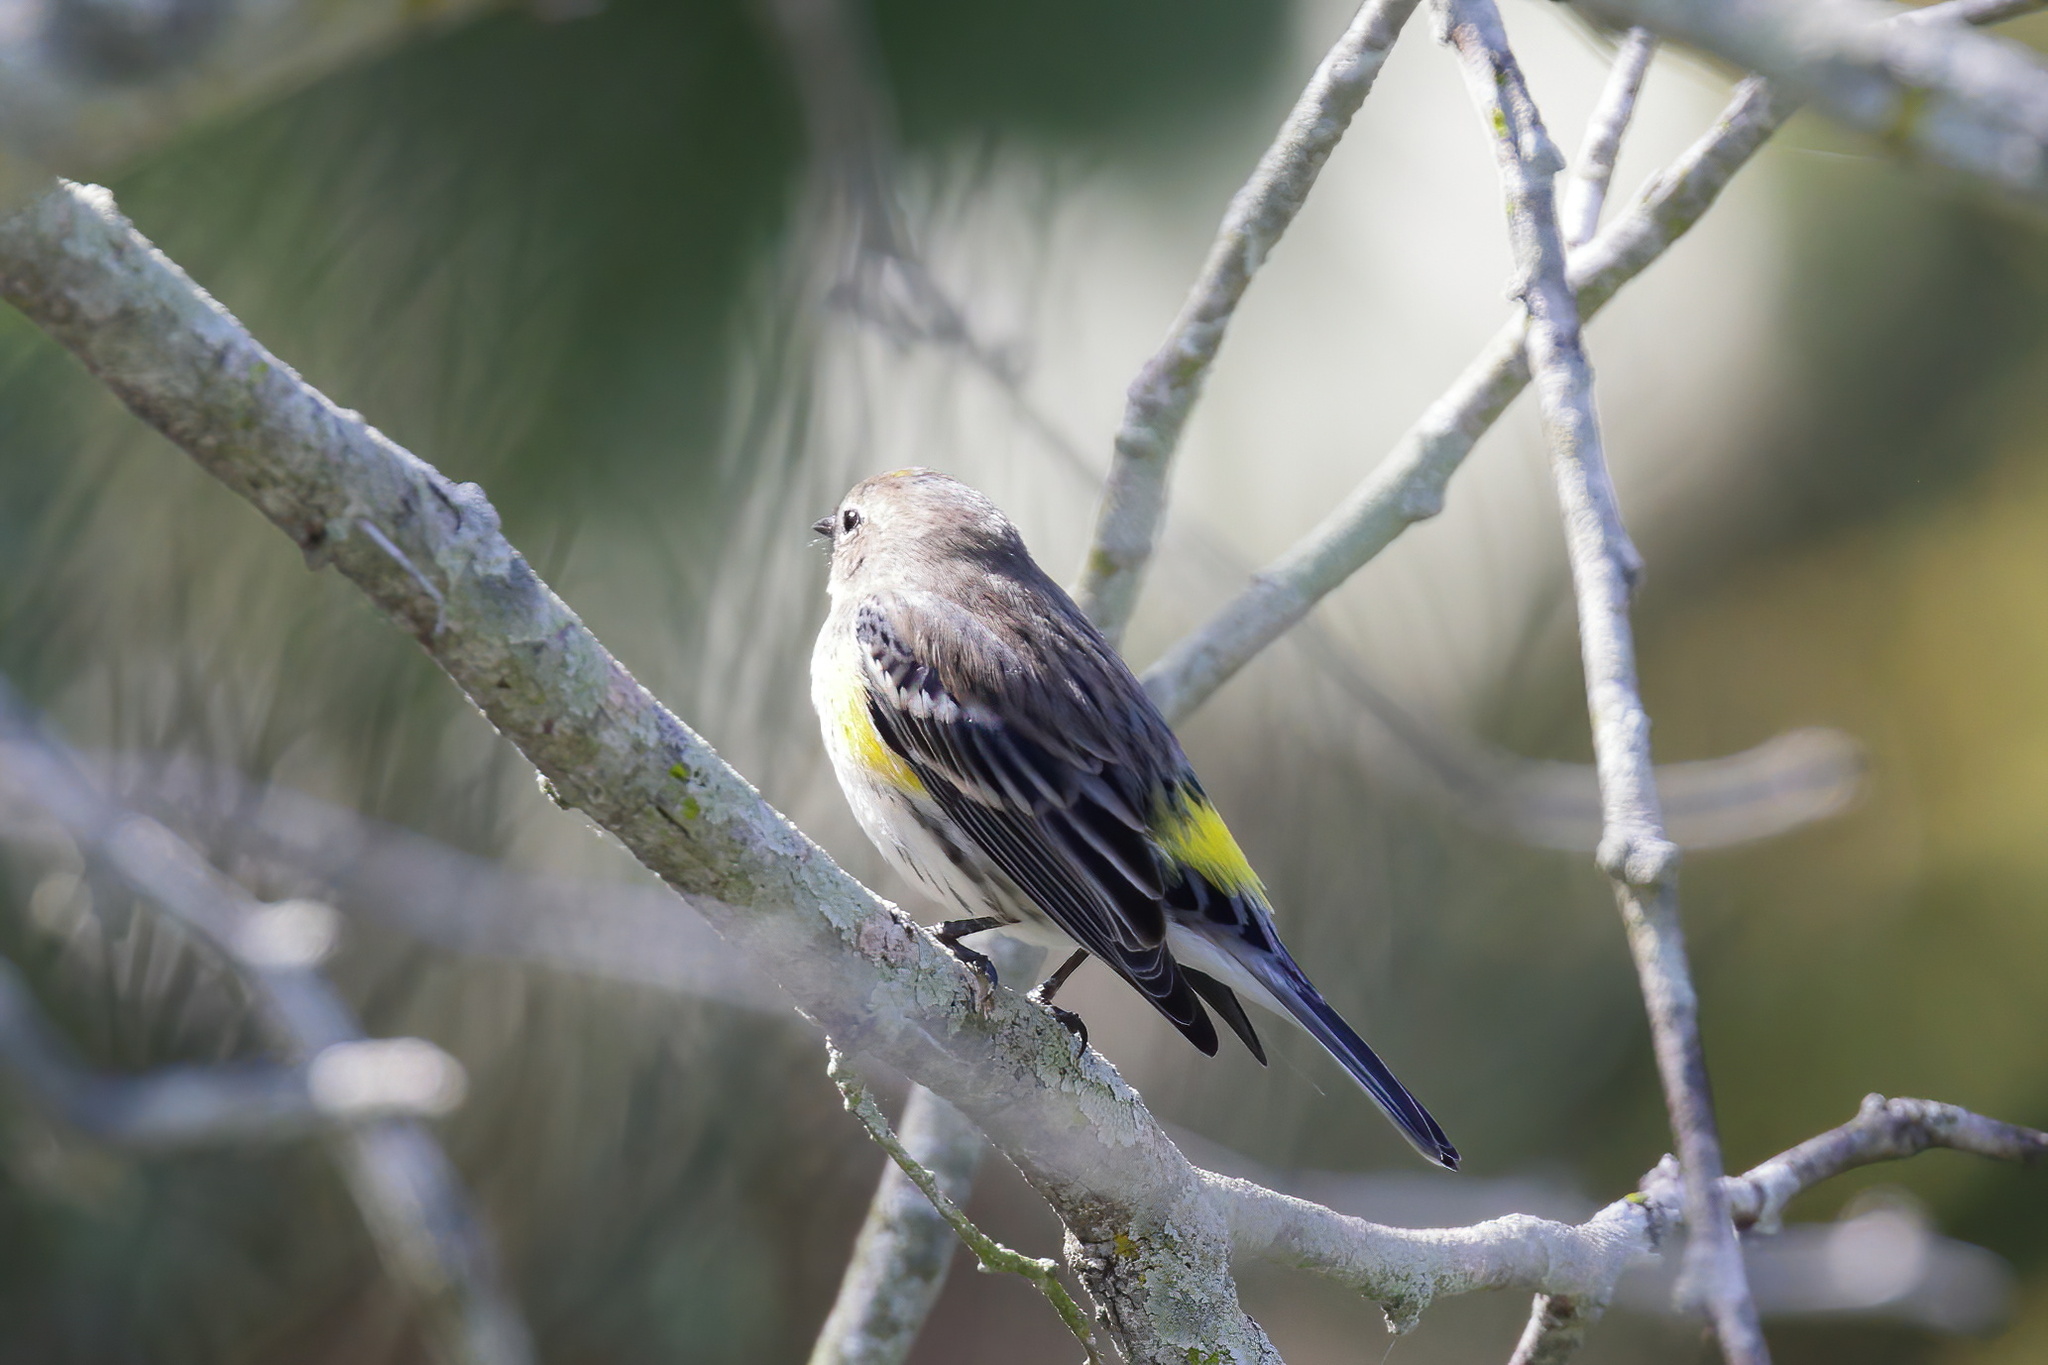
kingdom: Animalia
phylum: Chordata
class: Aves
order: Passeriformes
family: Parulidae
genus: Setophaga
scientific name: Setophaga coronata
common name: Myrtle warbler
